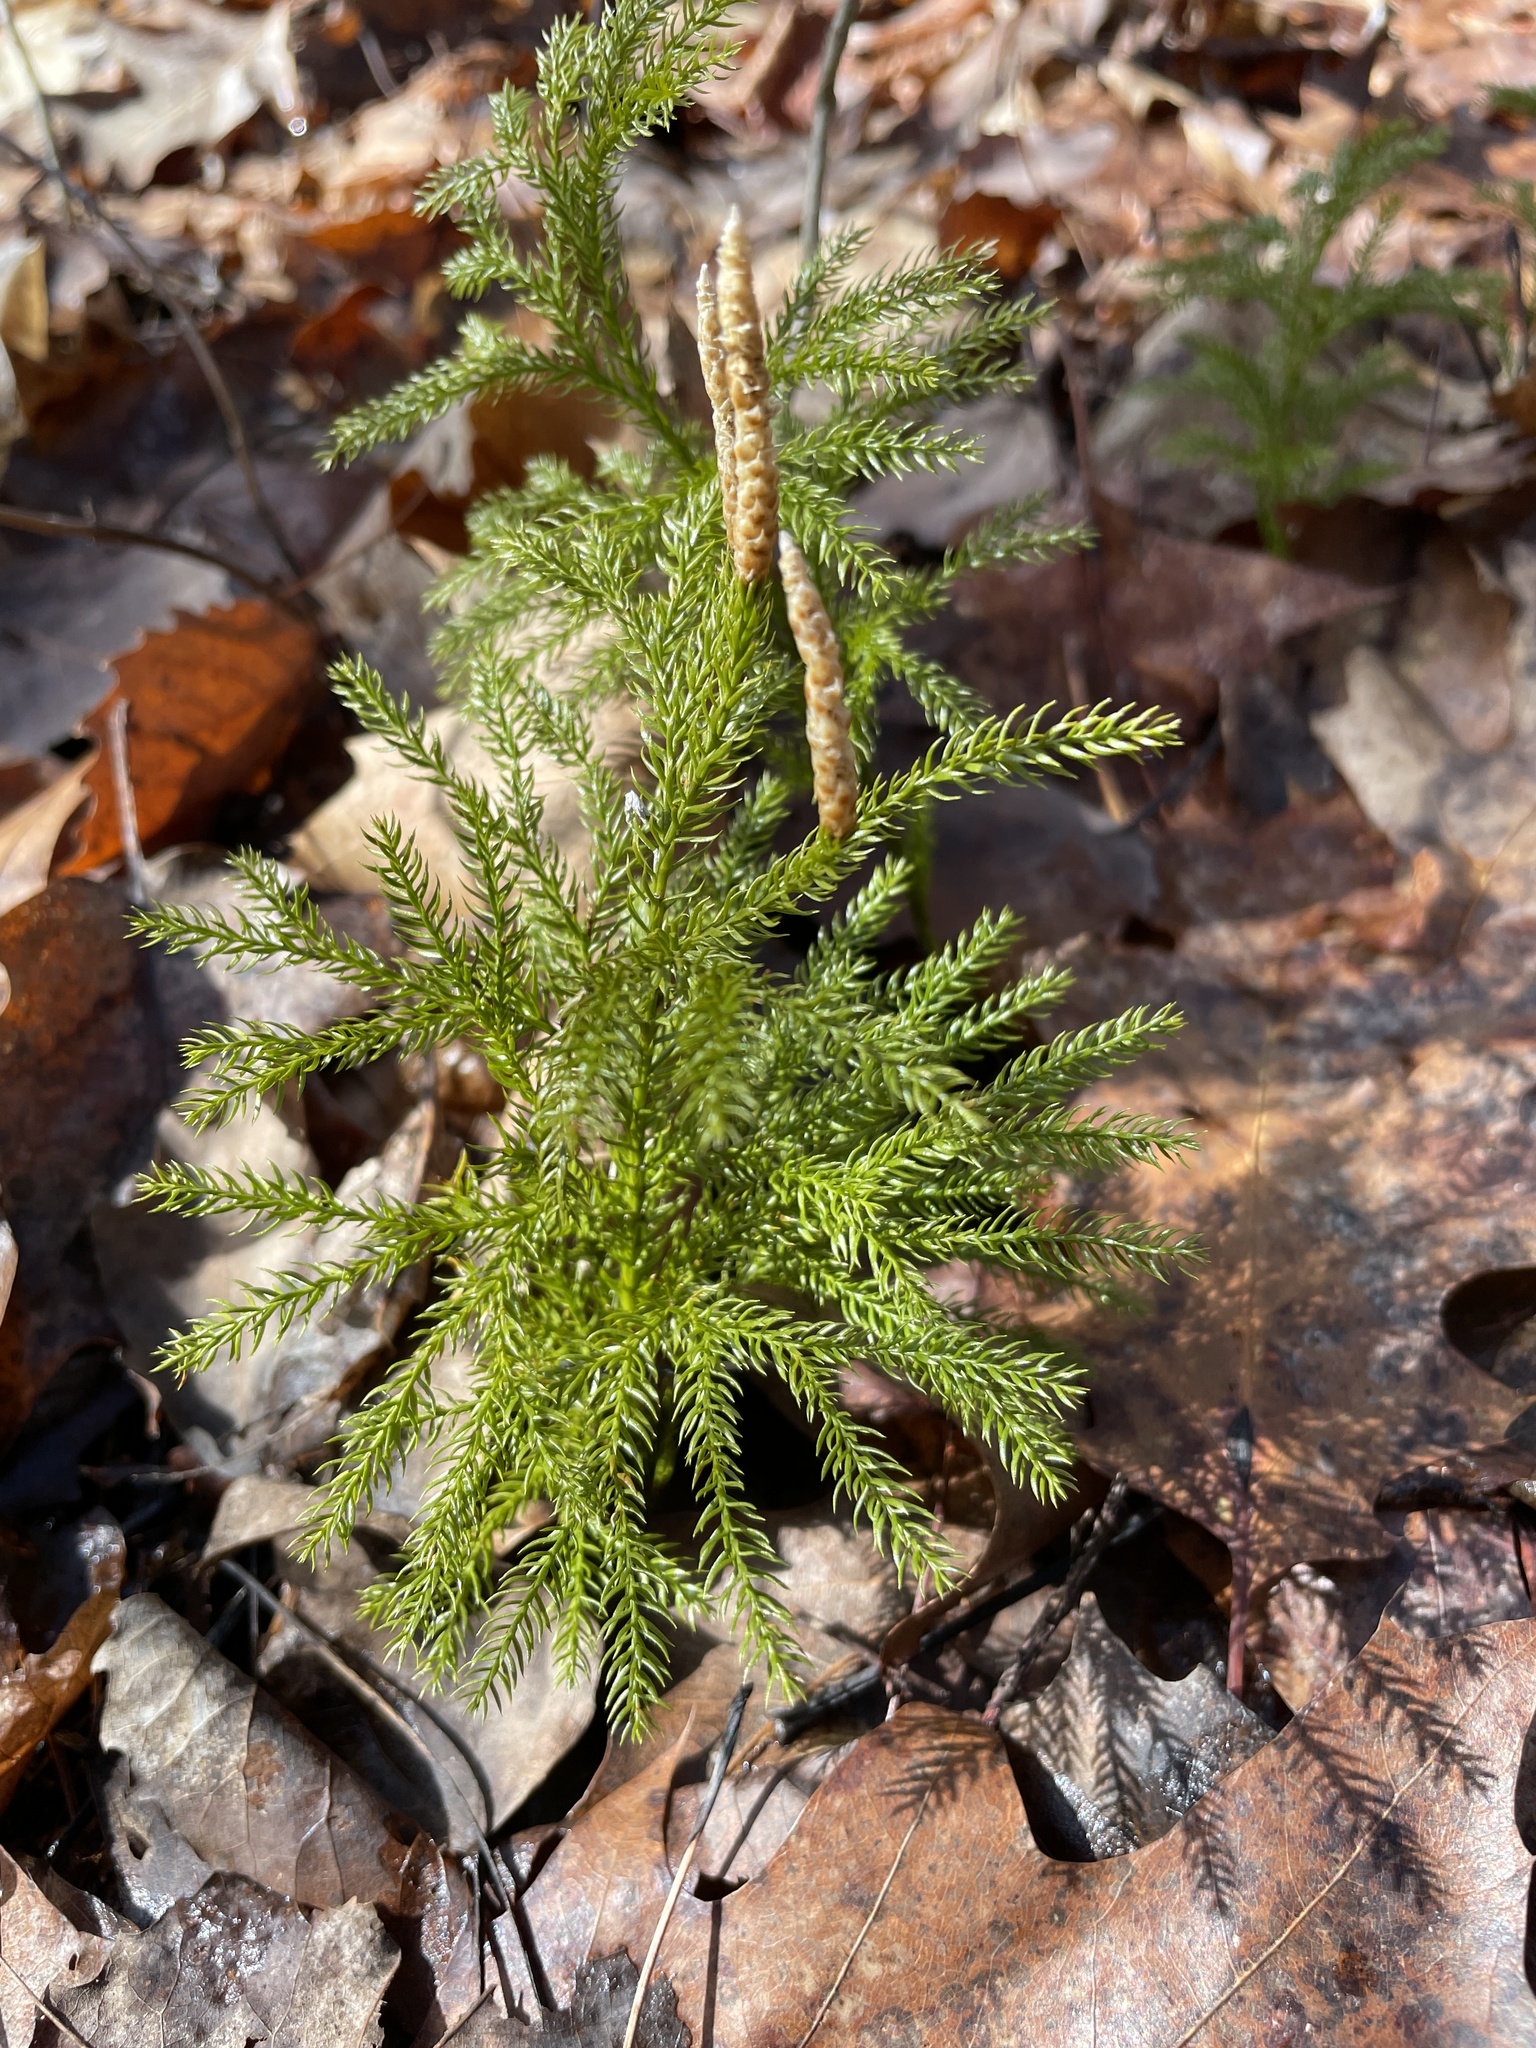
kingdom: Plantae
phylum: Tracheophyta
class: Lycopodiopsida
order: Lycopodiales
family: Lycopodiaceae
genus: Dendrolycopodium
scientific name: Dendrolycopodium obscurum
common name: Common ground-pine
